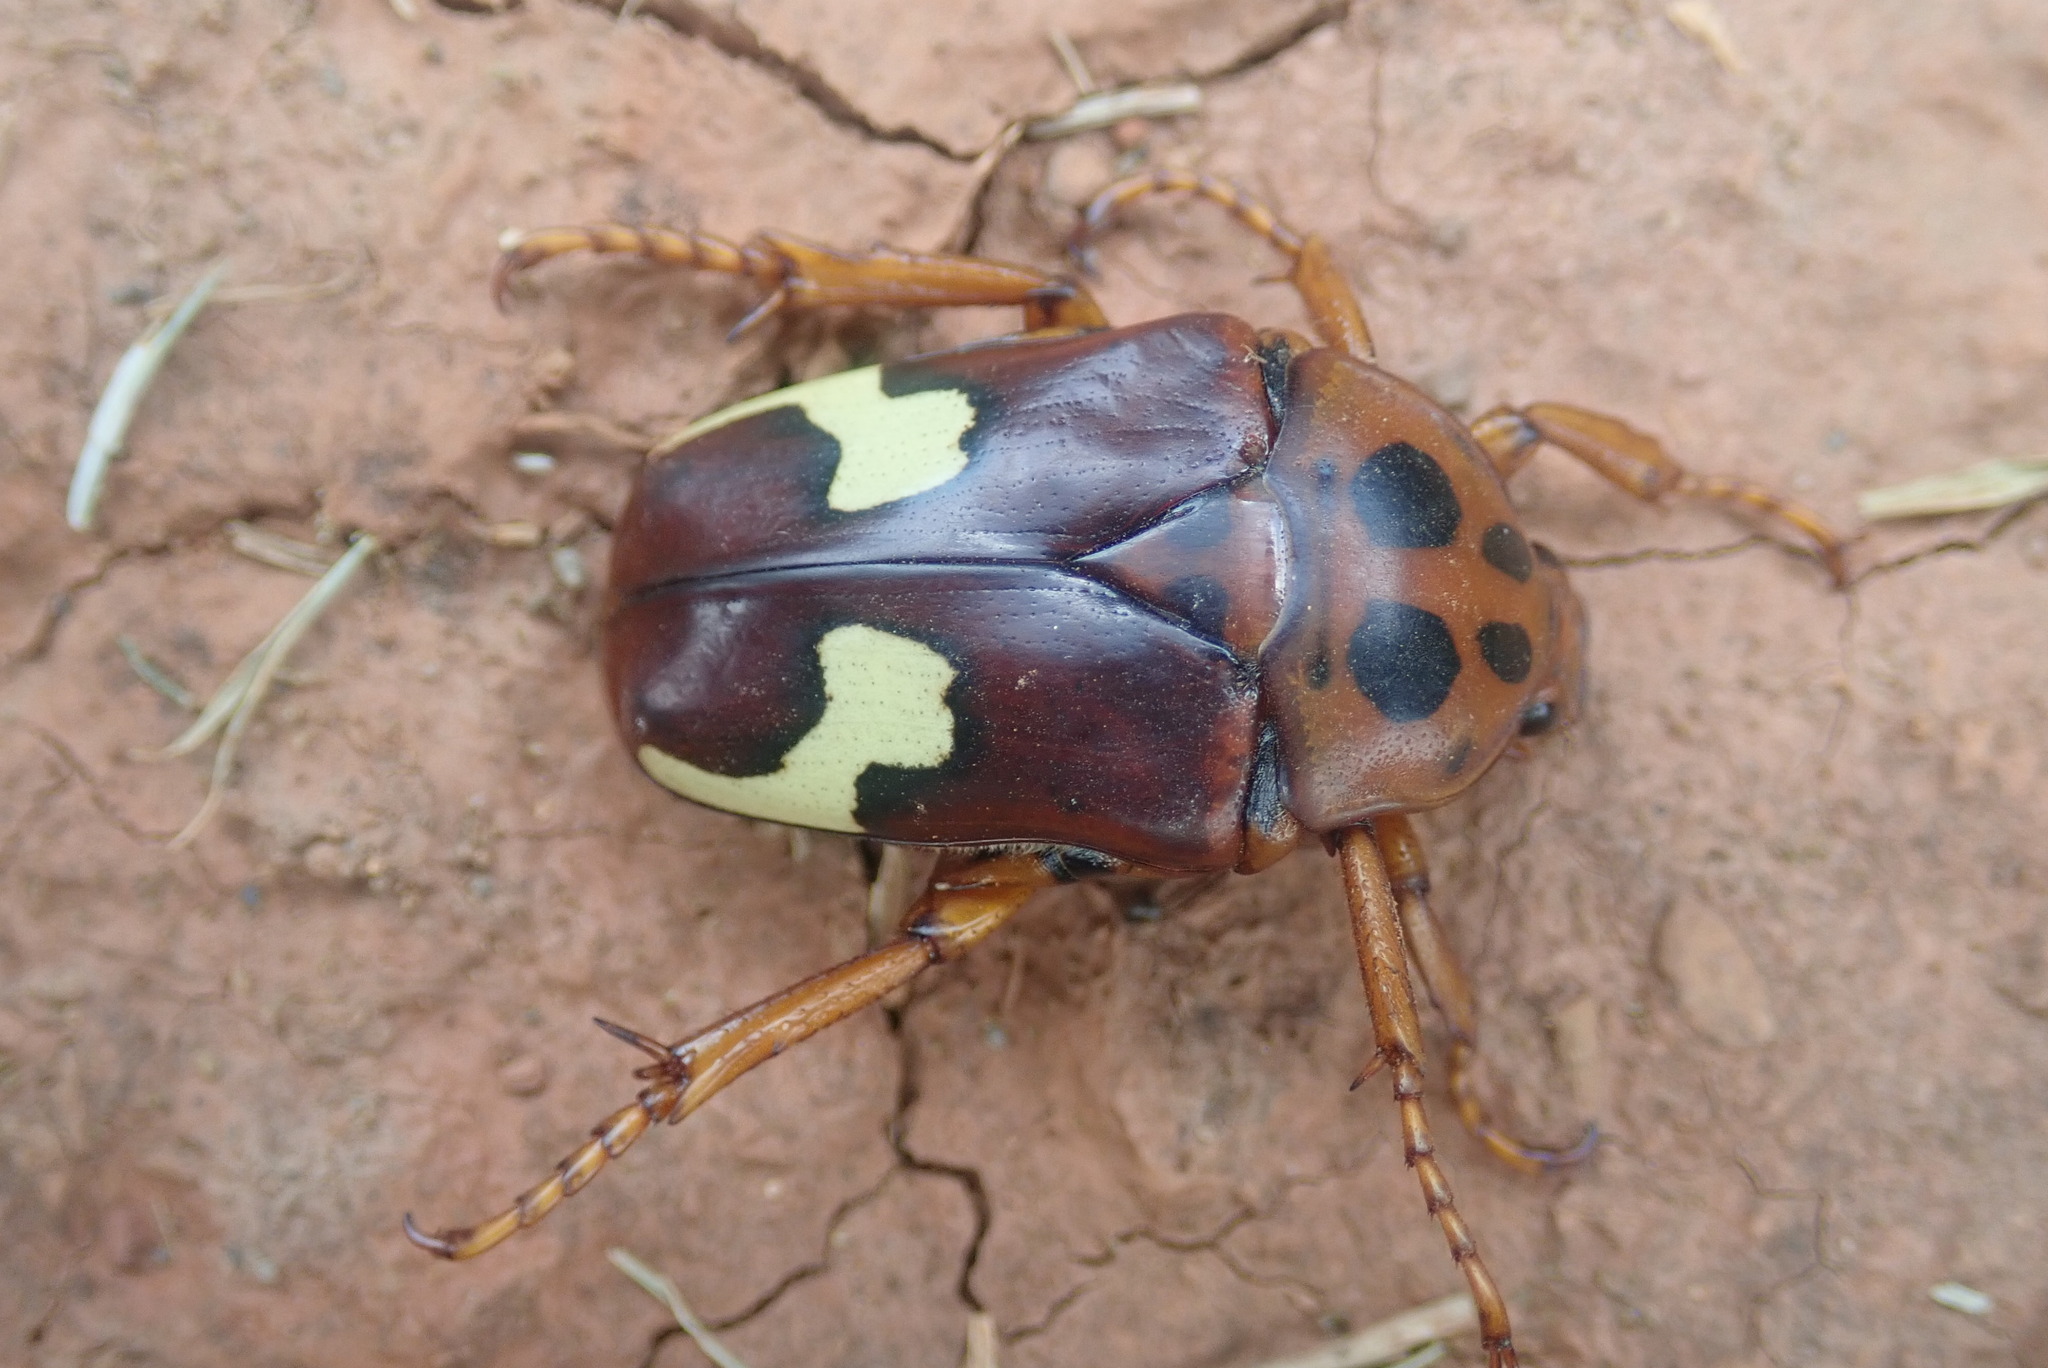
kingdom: Animalia
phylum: Arthropoda
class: Insecta
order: Coleoptera
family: Scarabaeidae
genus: Anisorrhina
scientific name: Anisorrhina flavomaculata
